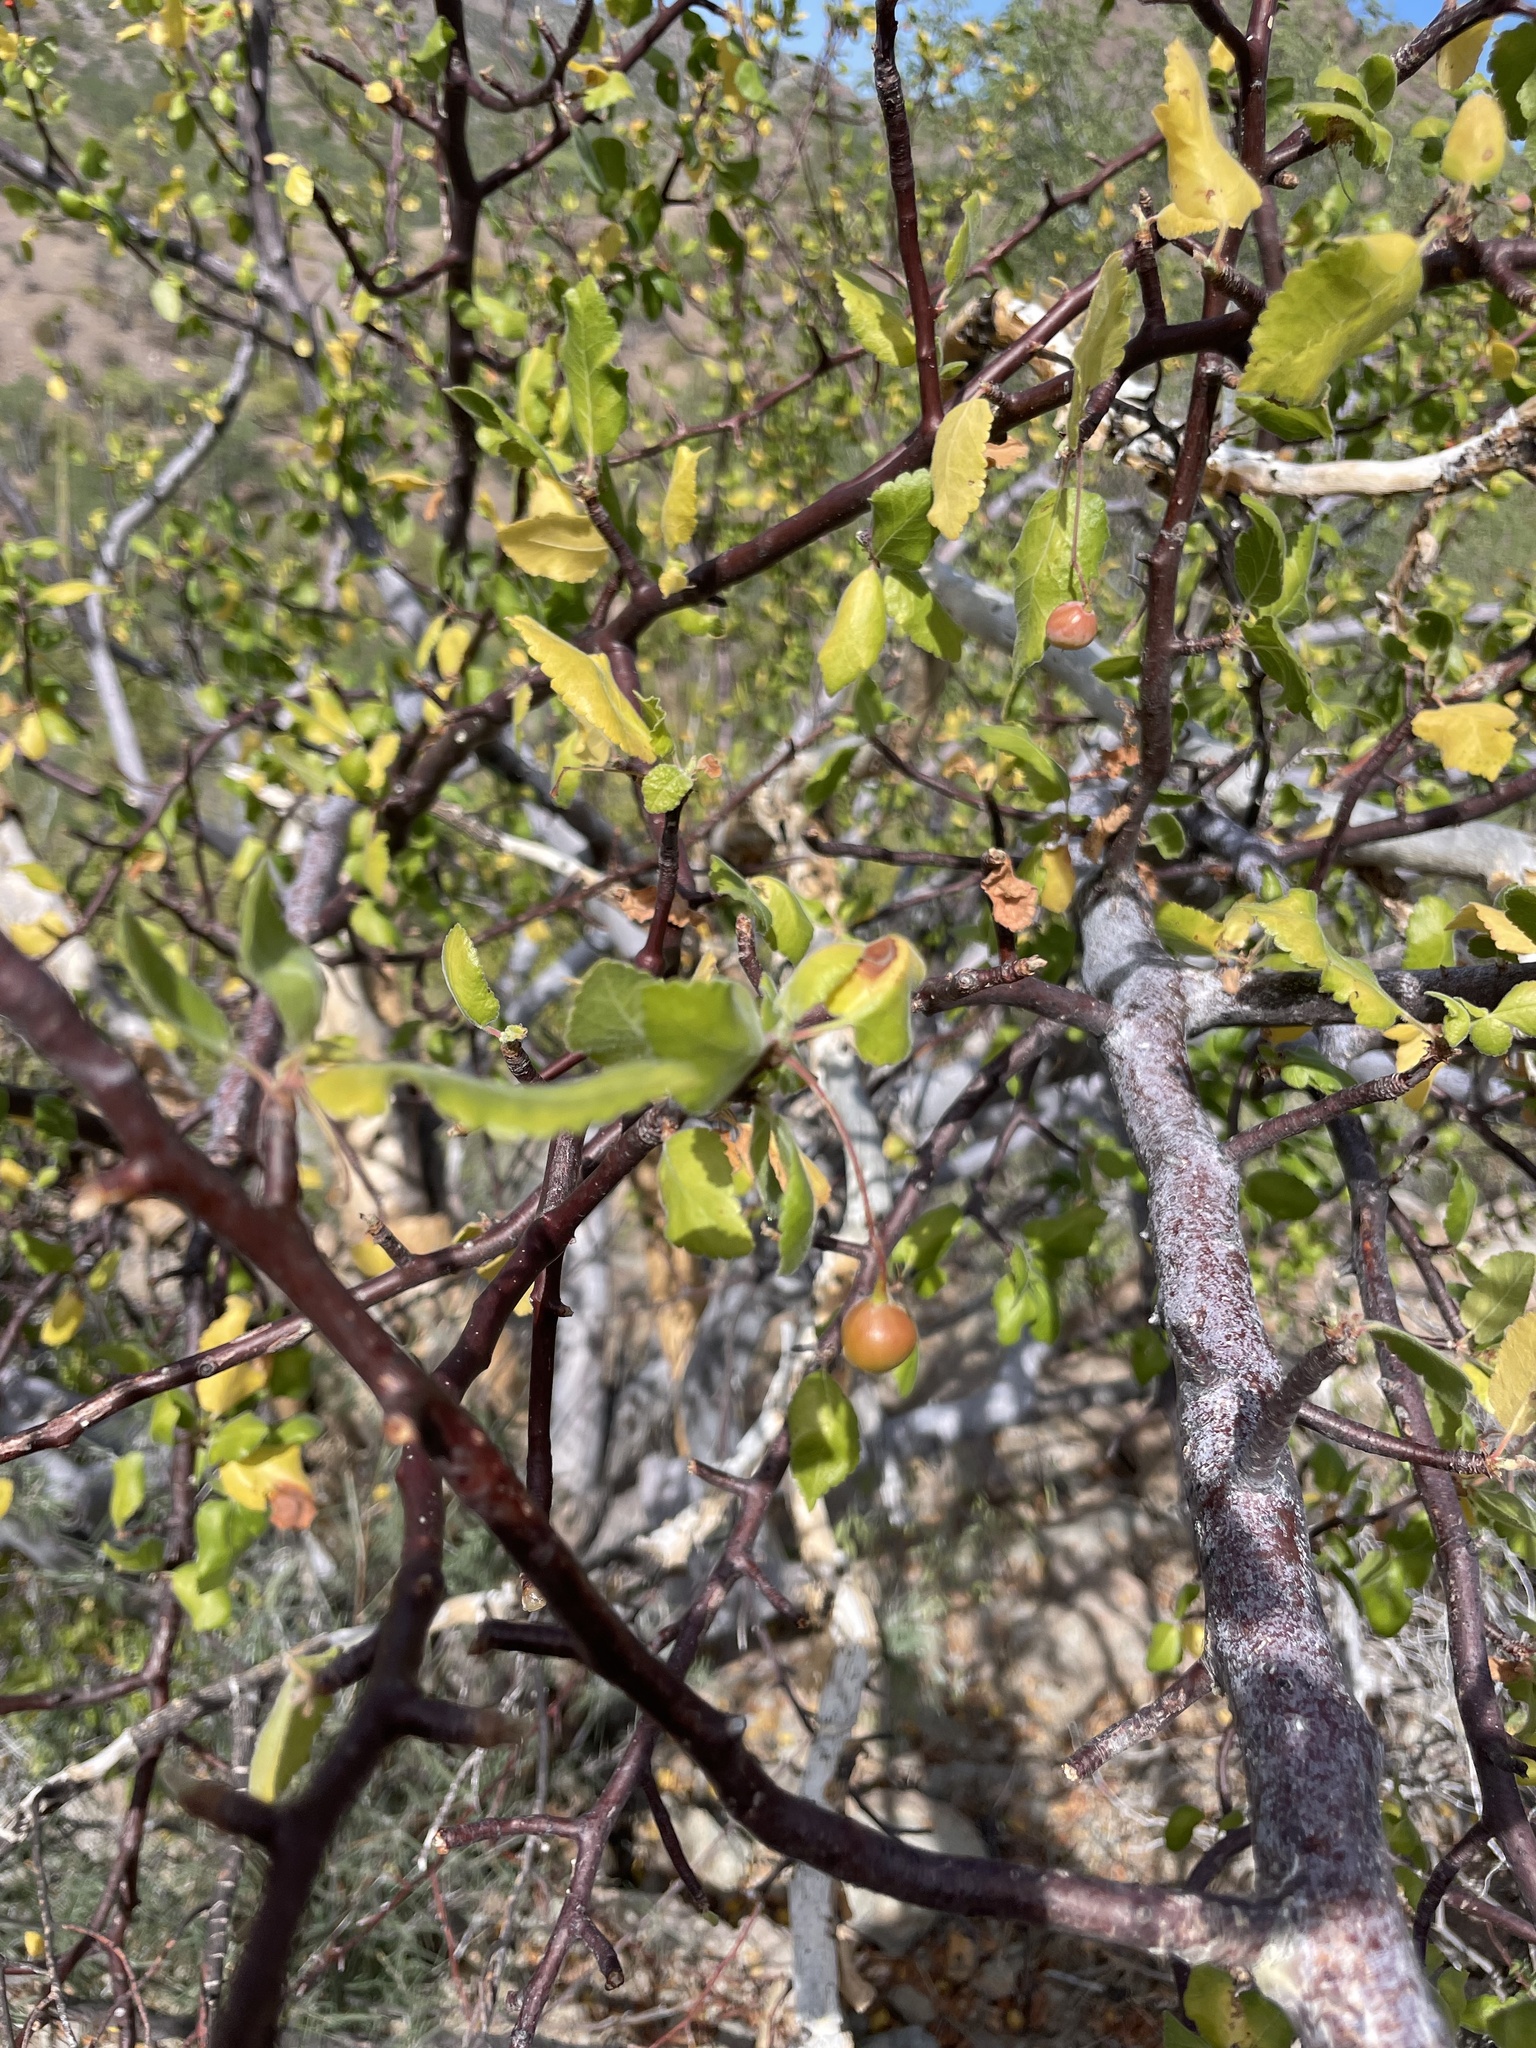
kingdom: Plantae
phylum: Tracheophyta
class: Magnoliopsida
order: Sapindales
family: Burseraceae
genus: Bursera
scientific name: Bursera epinnata
